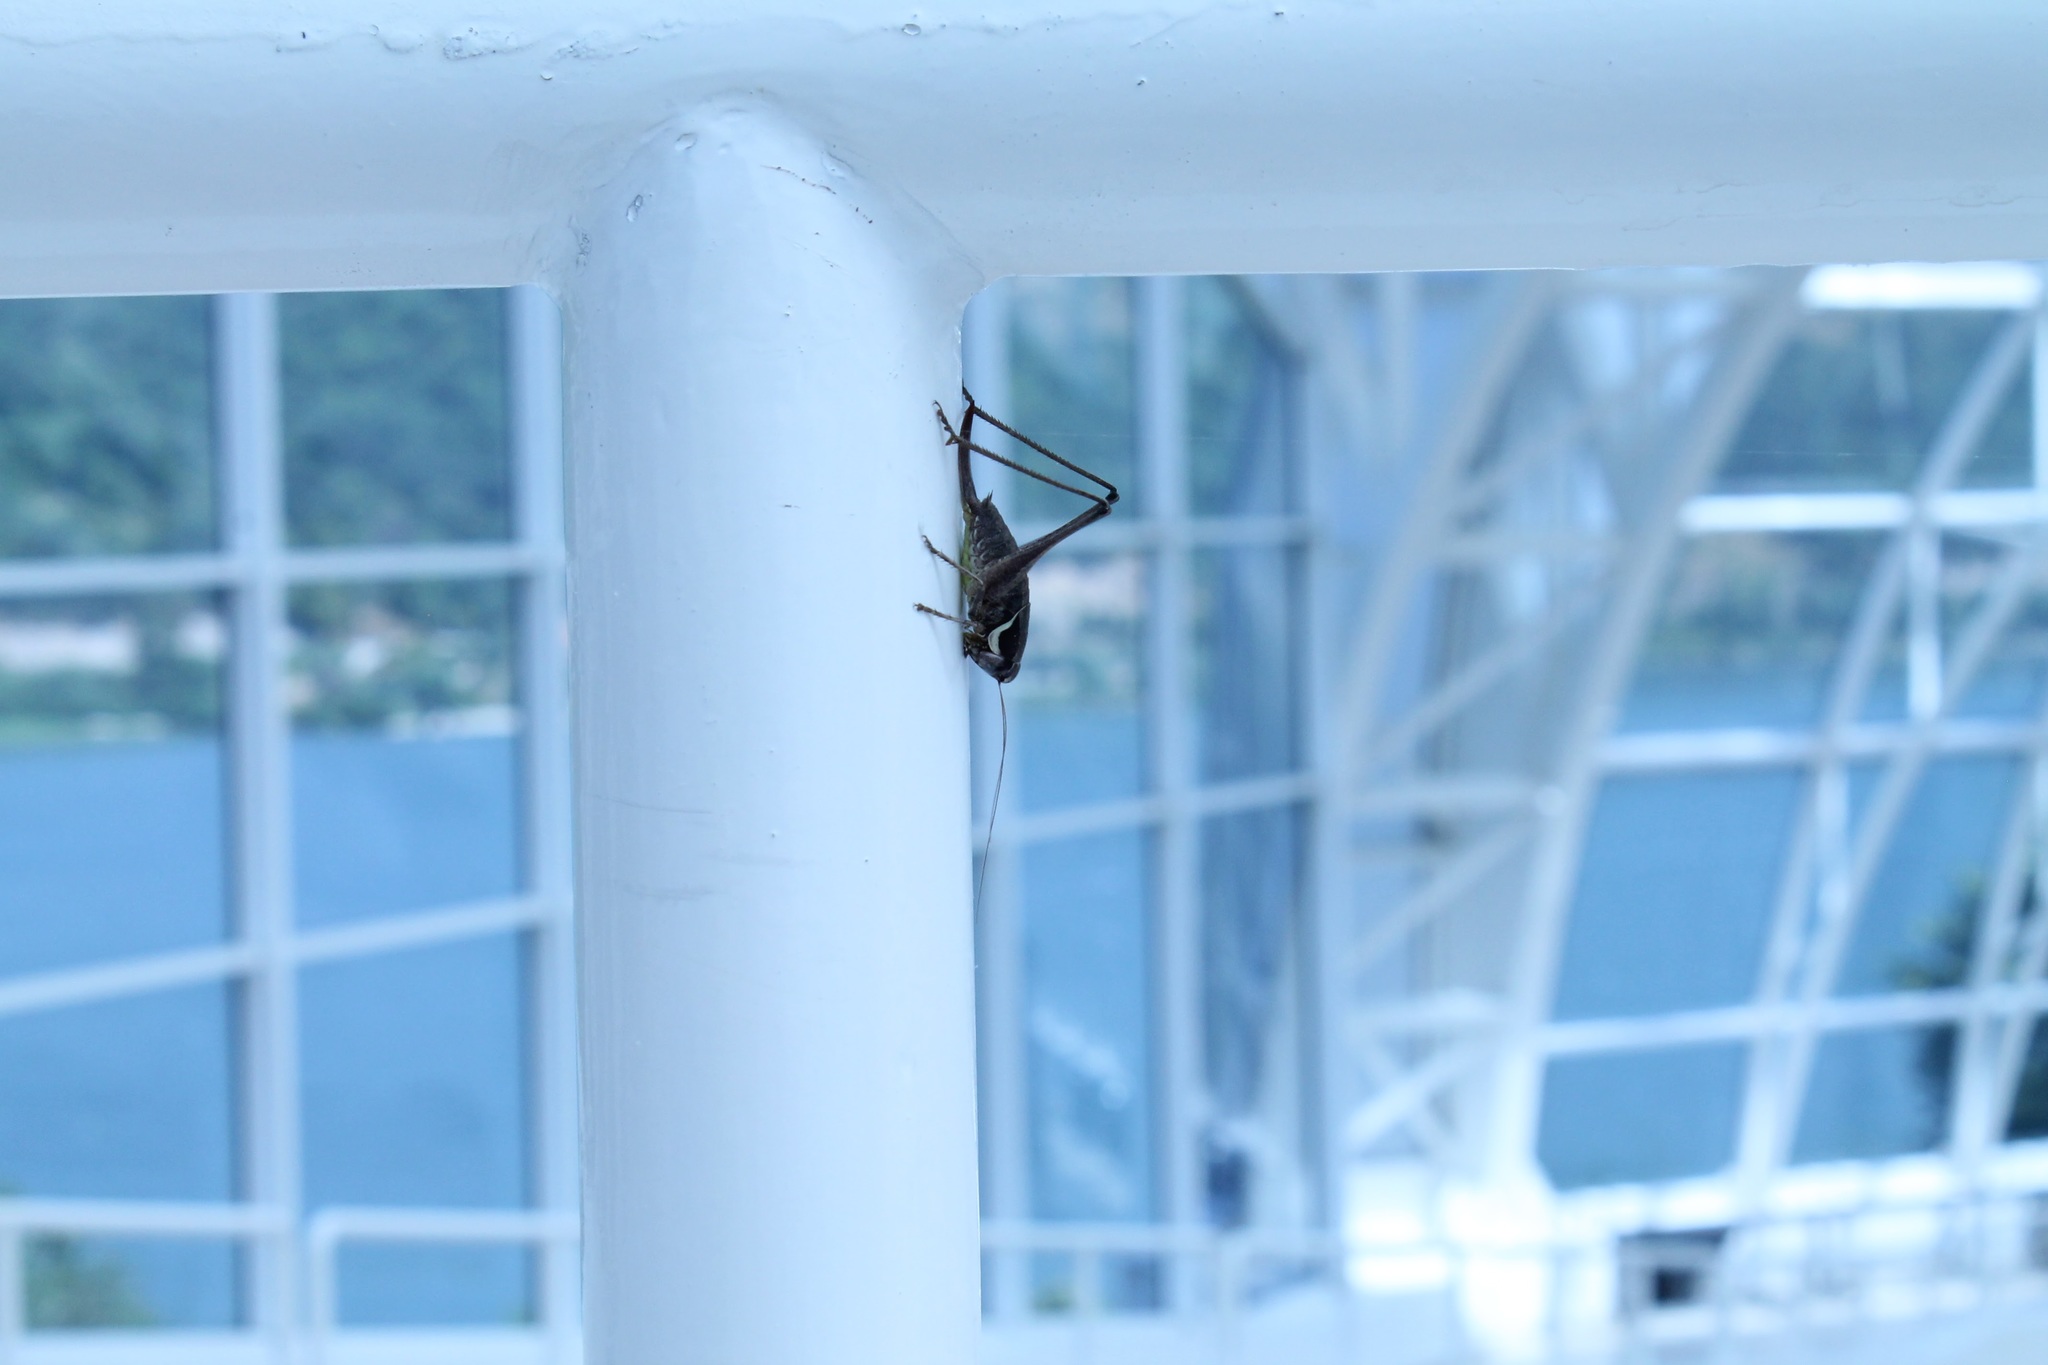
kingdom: Animalia
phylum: Arthropoda
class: Insecta
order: Orthoptera
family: Tettigoniidae
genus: Pholidoptera
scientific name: Pholidoptera fallax
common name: Fischer's bush-cricket
